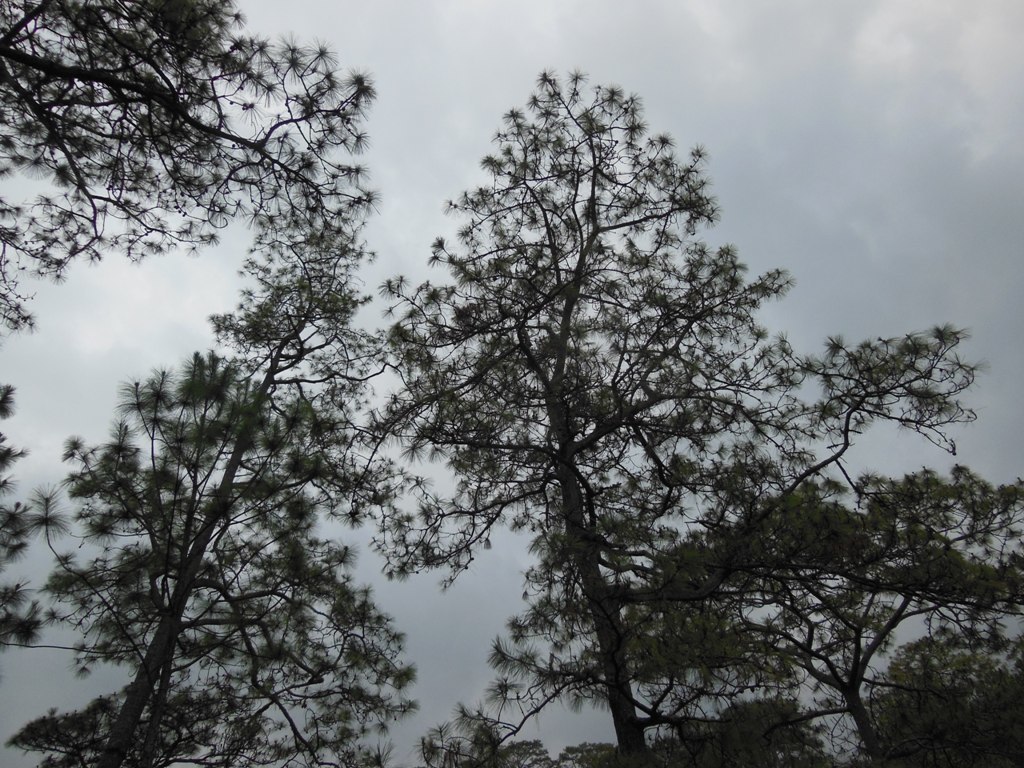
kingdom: Plantae
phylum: Tracheophyta
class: Pinopsida
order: Pinales
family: Pinaceae
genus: Pinus
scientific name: Pinus oocarpa
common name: Egg-cone pine
